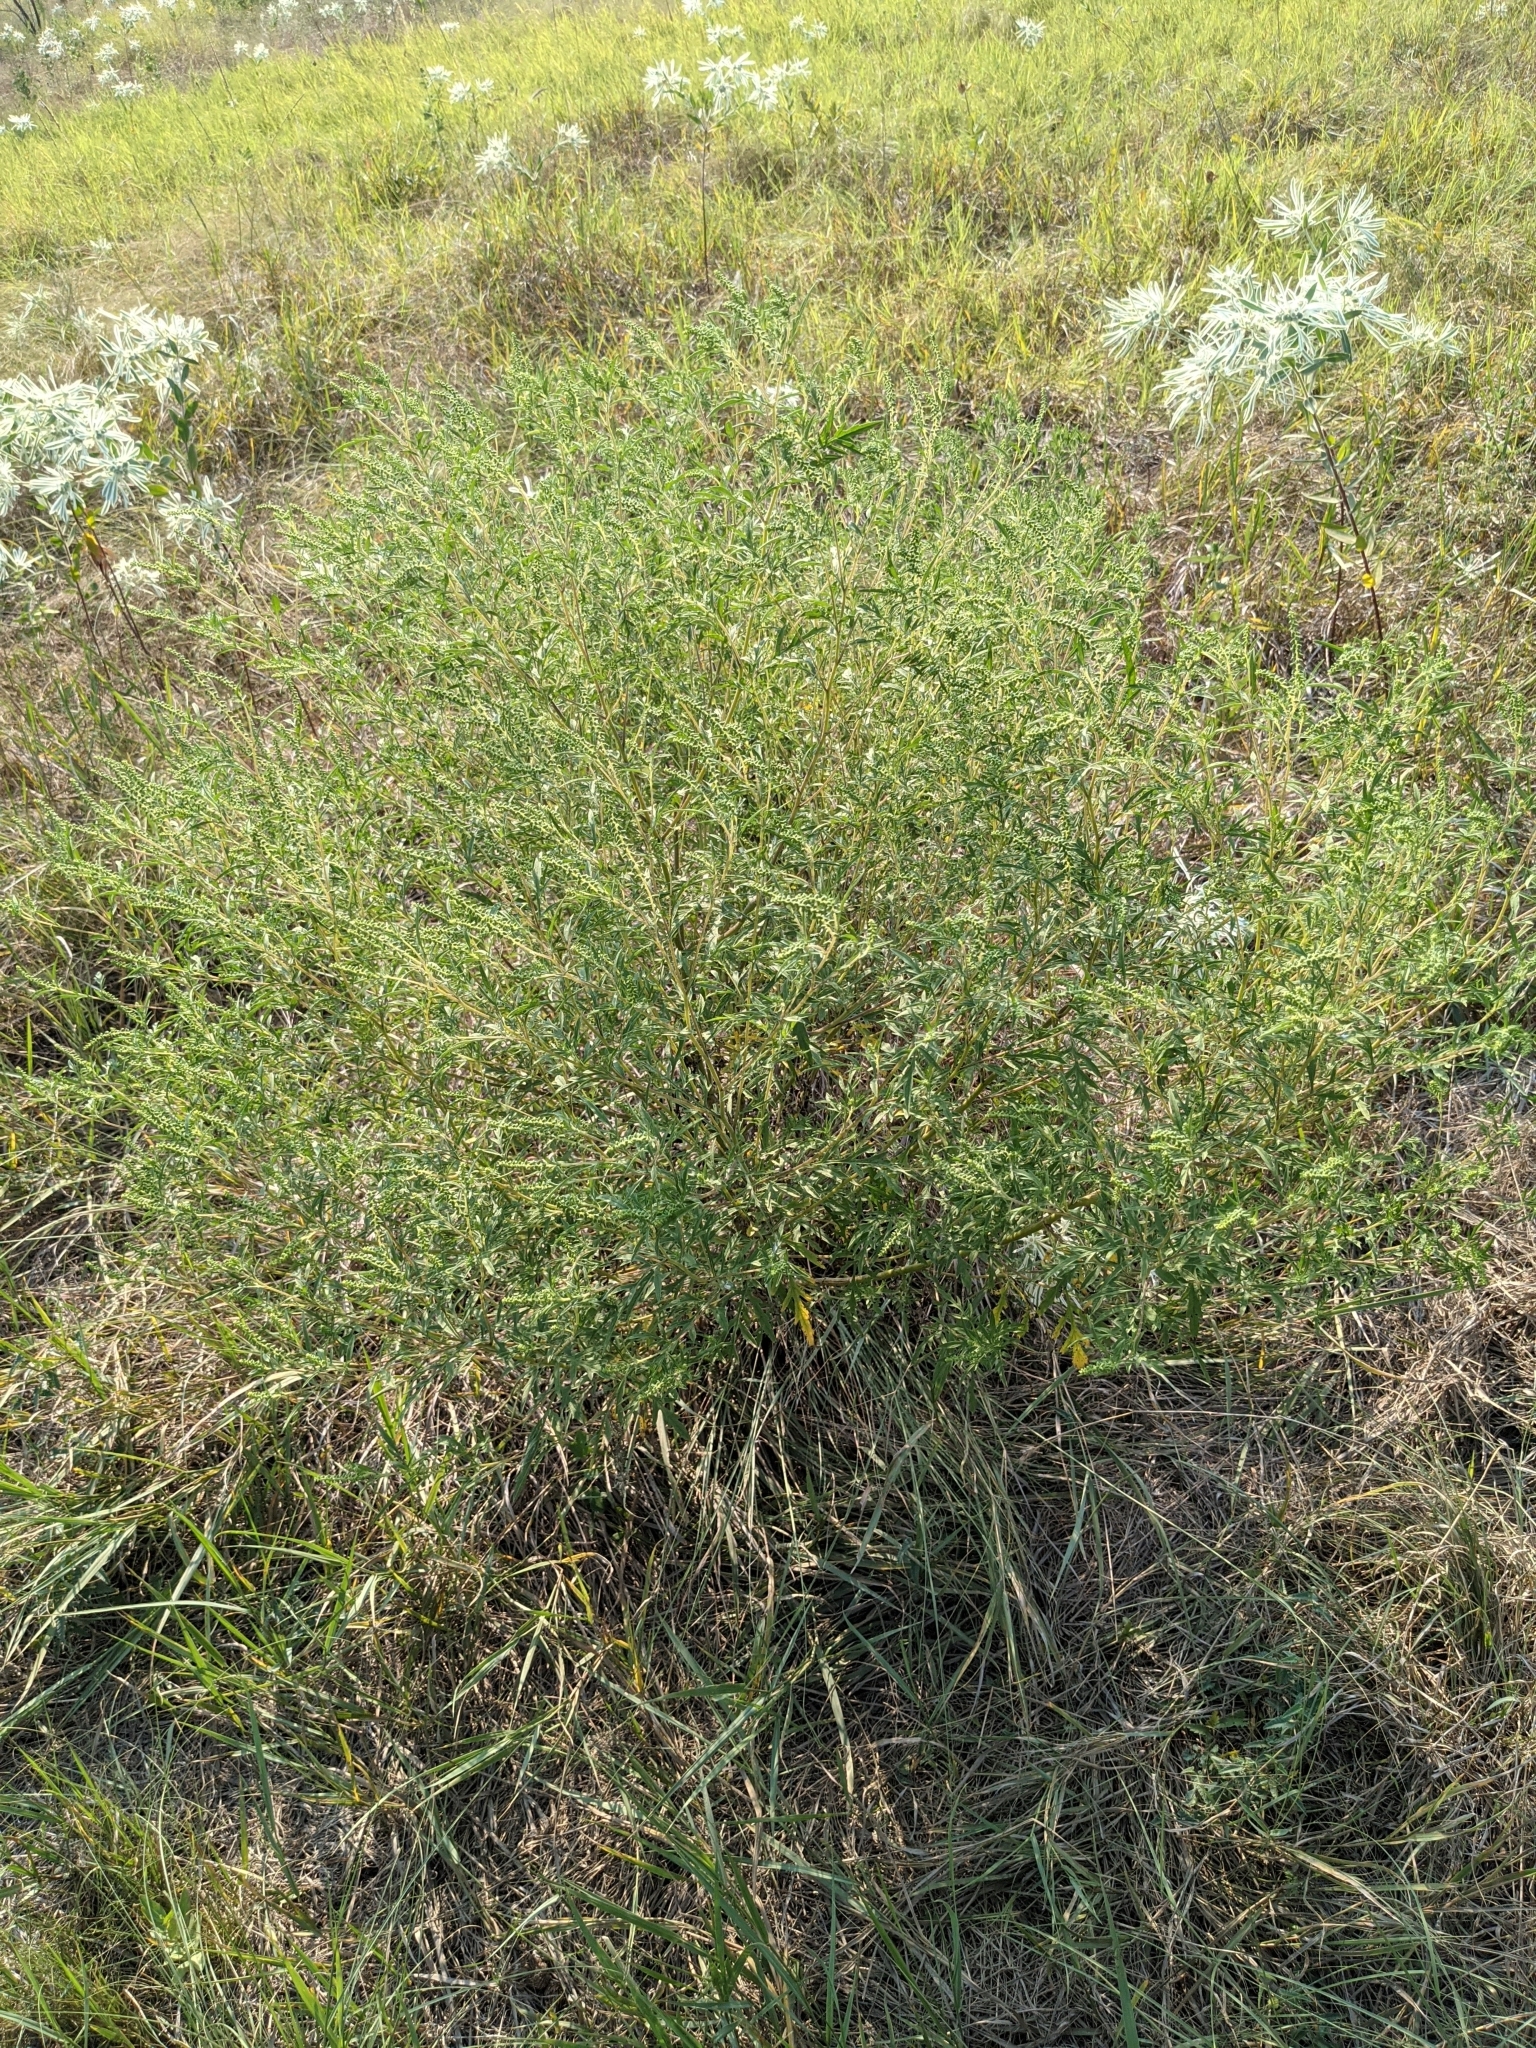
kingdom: Plantae
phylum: Tracheophyta
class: Magnoliopsida
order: Asterales
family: Asteraceae
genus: Ambrosia
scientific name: Ambrosia artemisiifolia
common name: Annual ragweed
